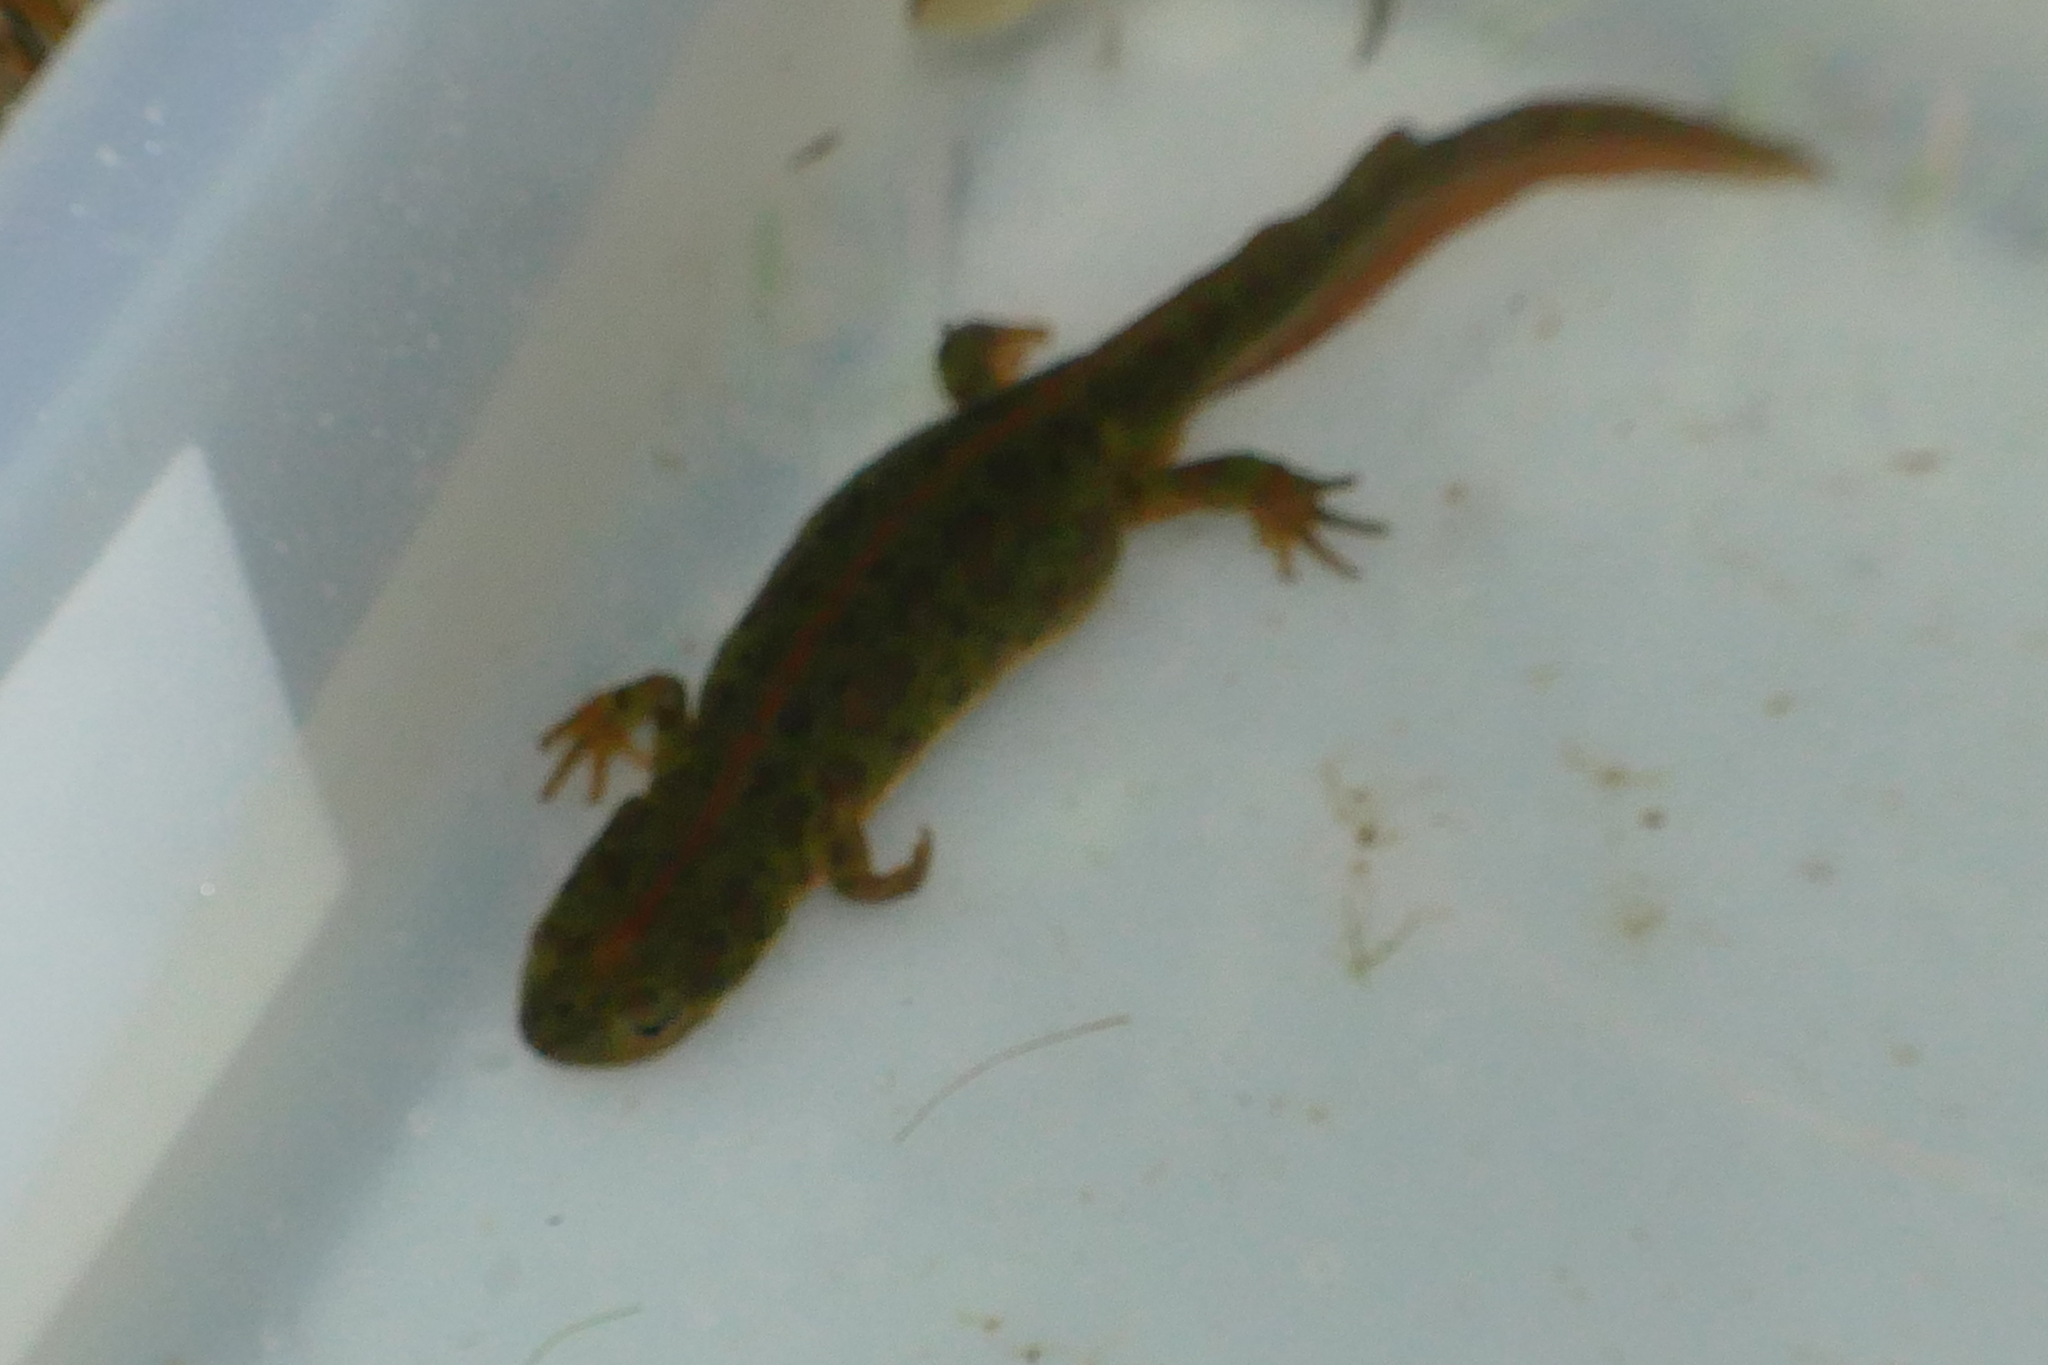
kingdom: Animalia
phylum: Chordata
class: Amphibia
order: Caudata
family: Salamandridae
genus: Triturus
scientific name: Triturus pygmaeus
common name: Southern marbled newt
